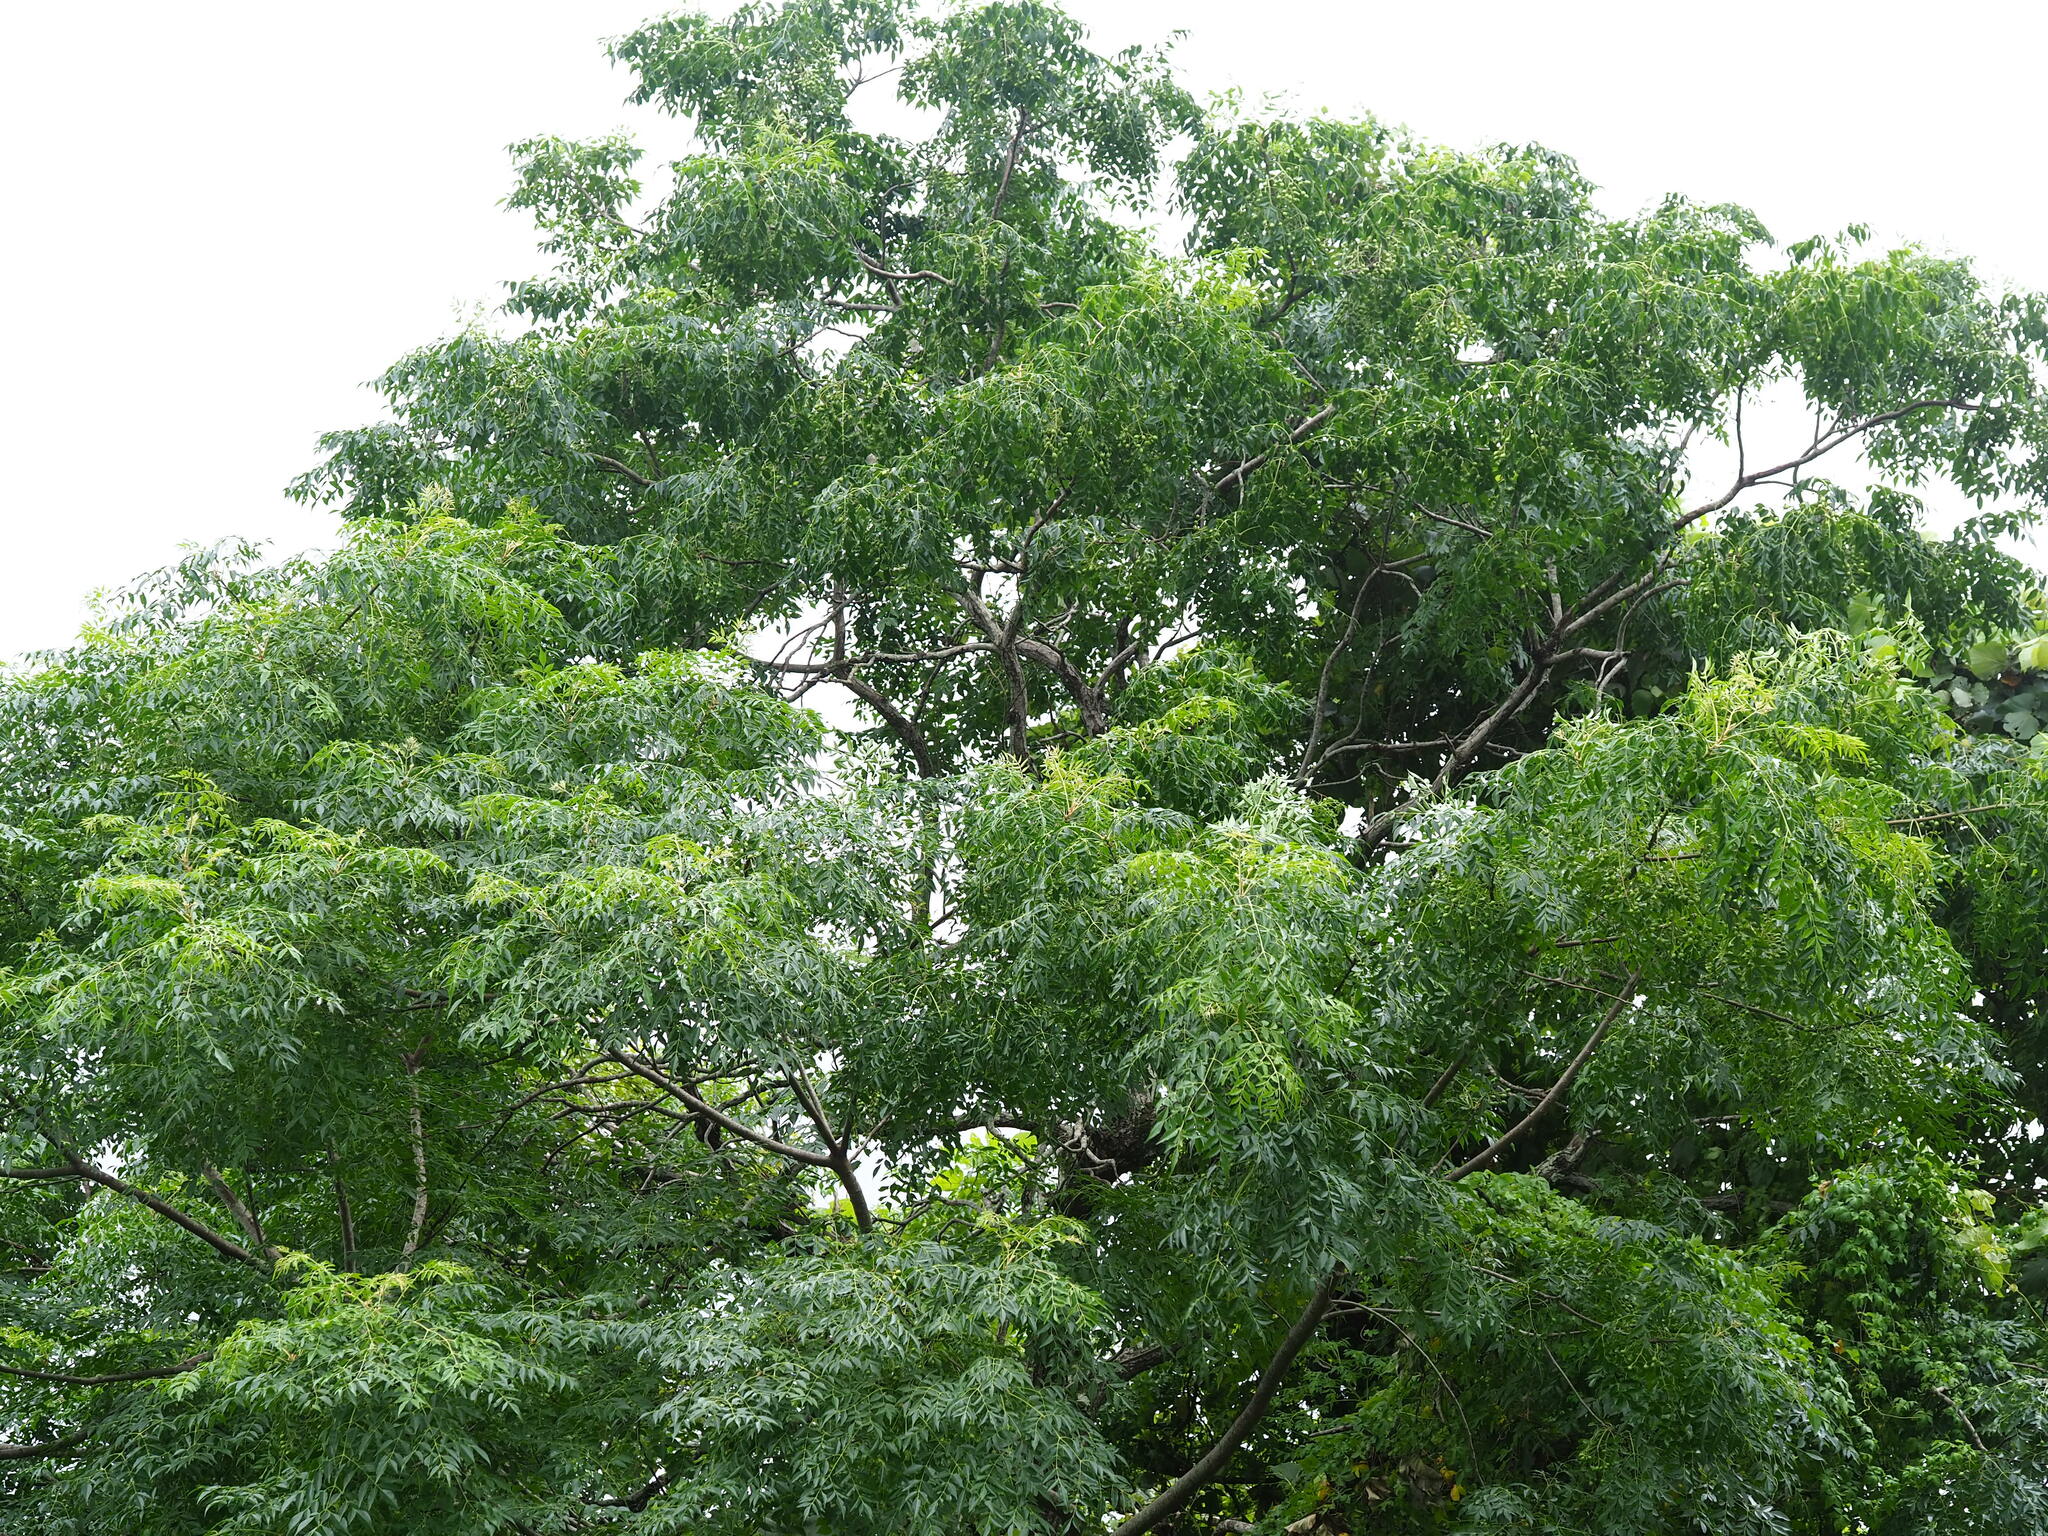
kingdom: Plantae
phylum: Tracheophyta
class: Magnoliopsida
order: Sapindales
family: Meliaceae
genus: Melia
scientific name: Melia azedarach
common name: Chinaberrytree
